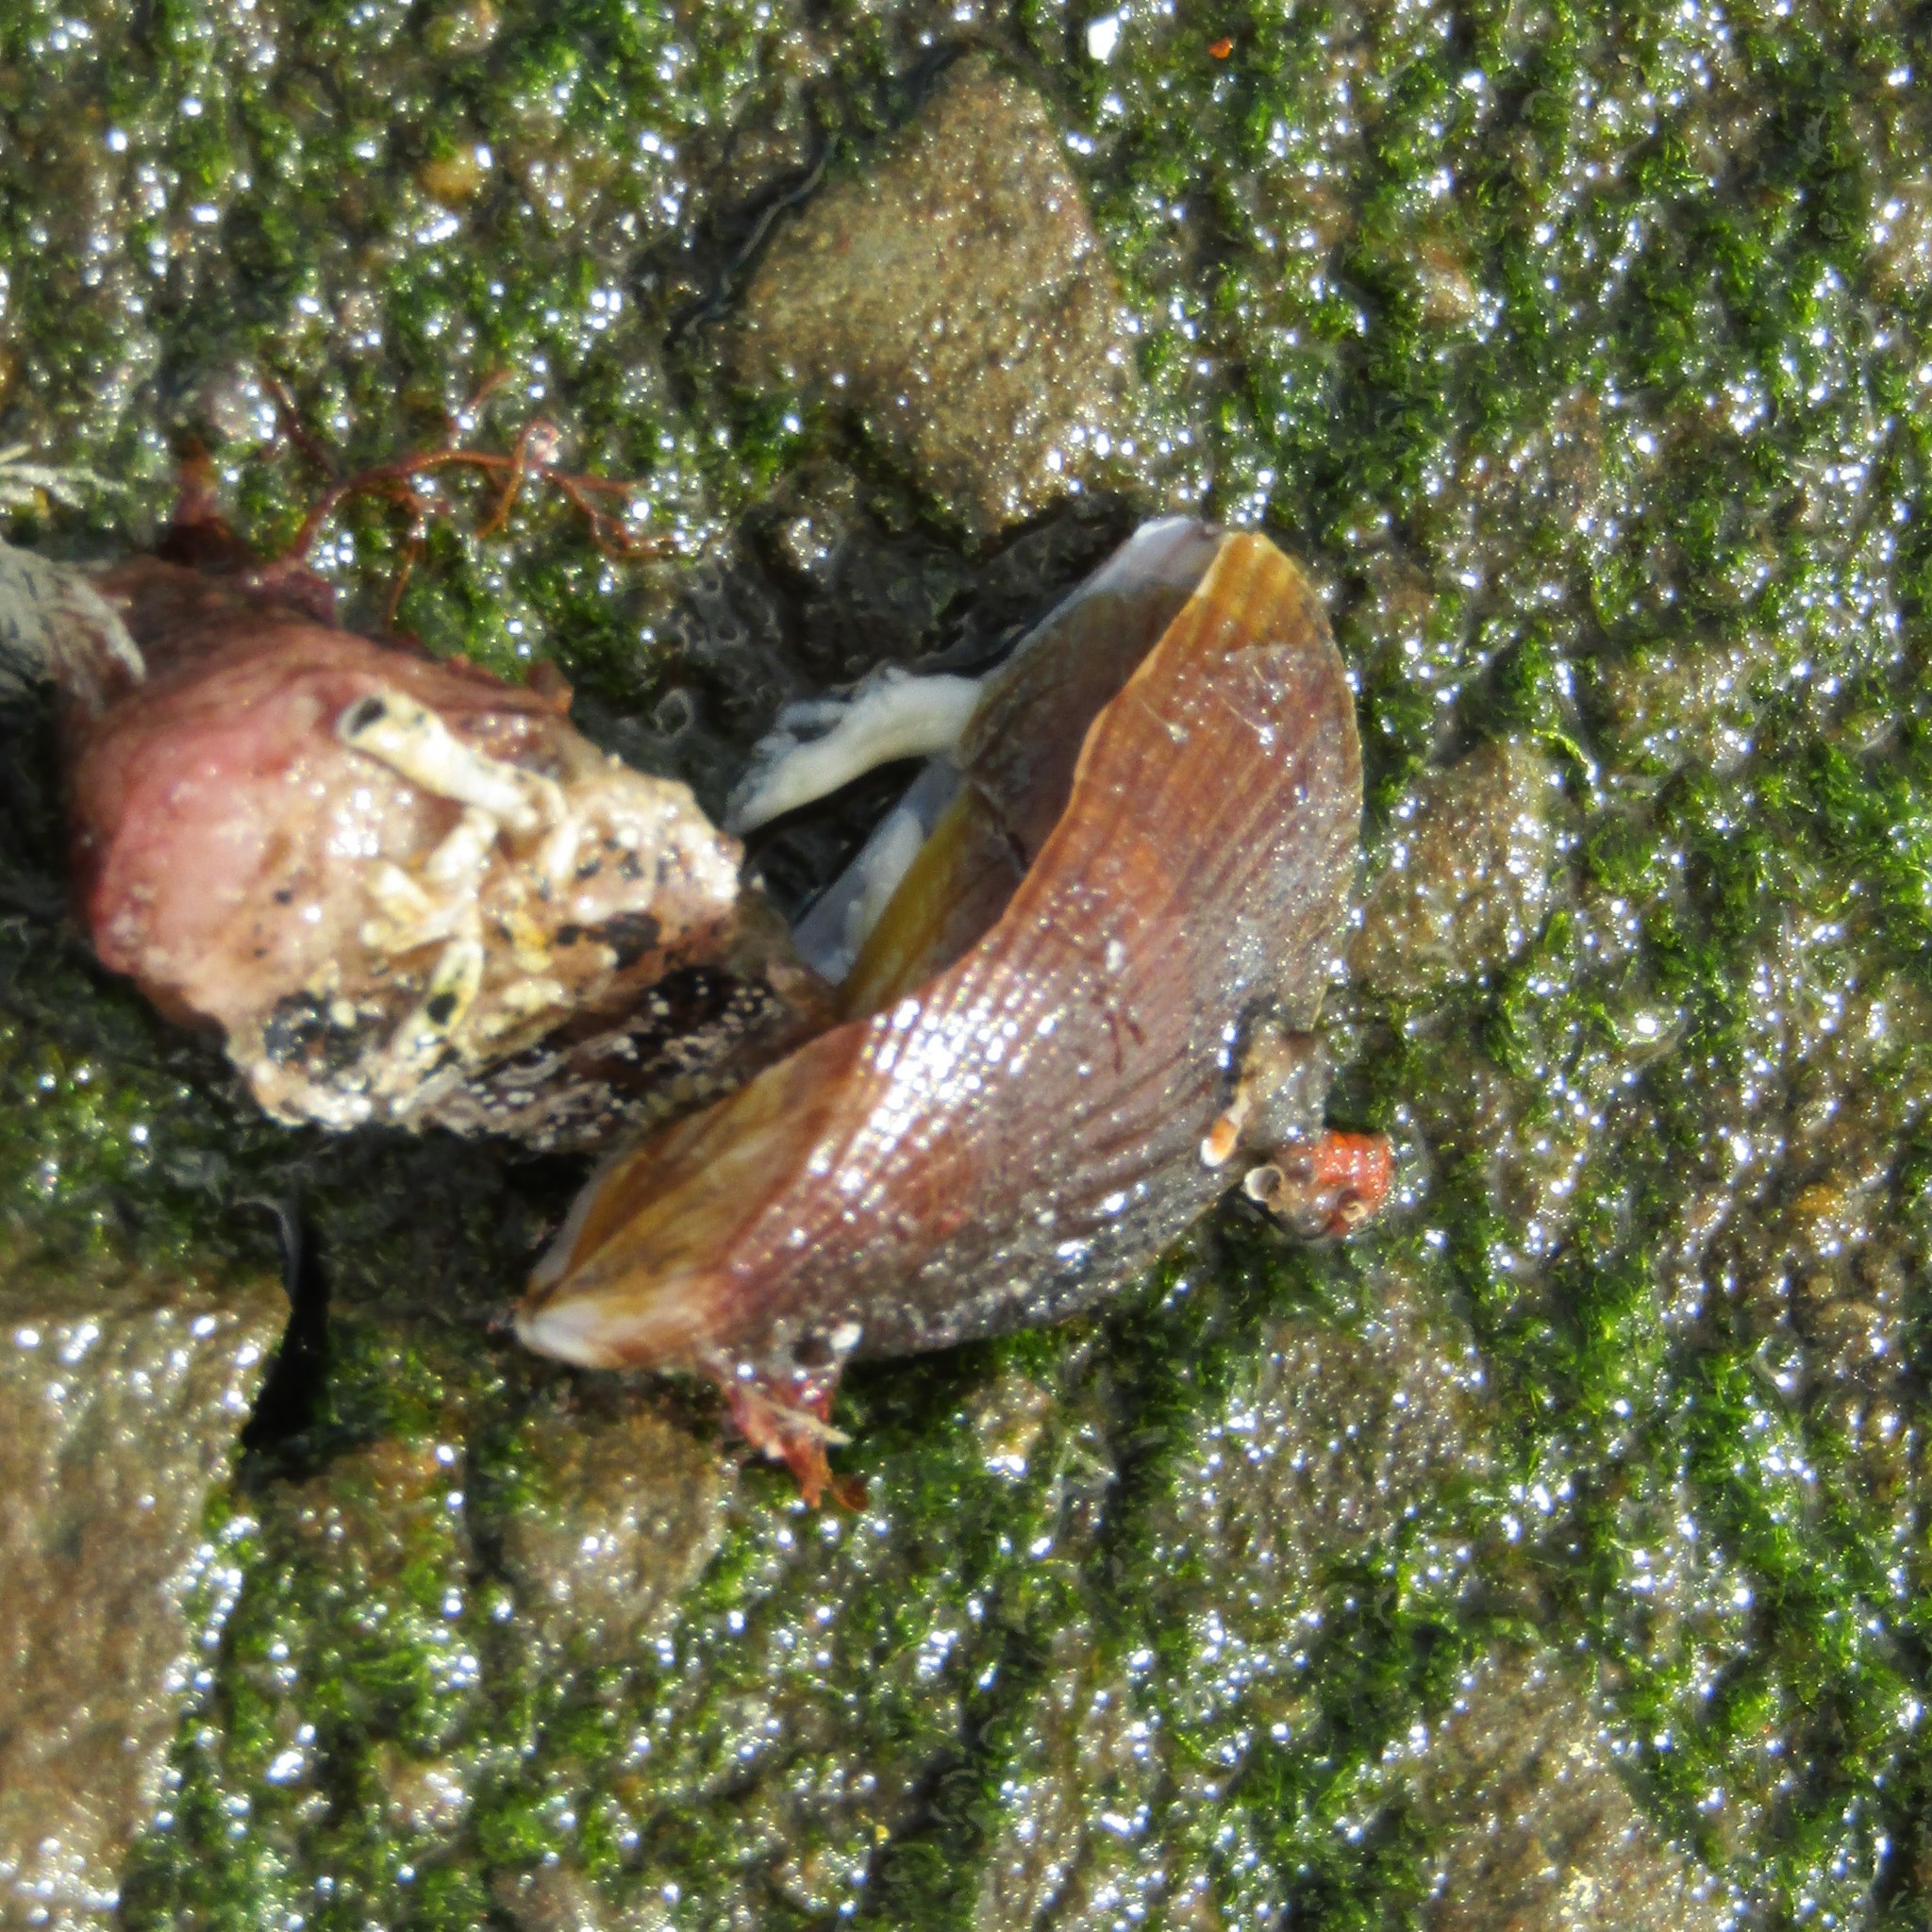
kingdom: Animalia
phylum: Mollusca
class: Bivalvia
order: Mytilida
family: Mytilidae
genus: Aulacomya
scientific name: Aulacomya maoriana
